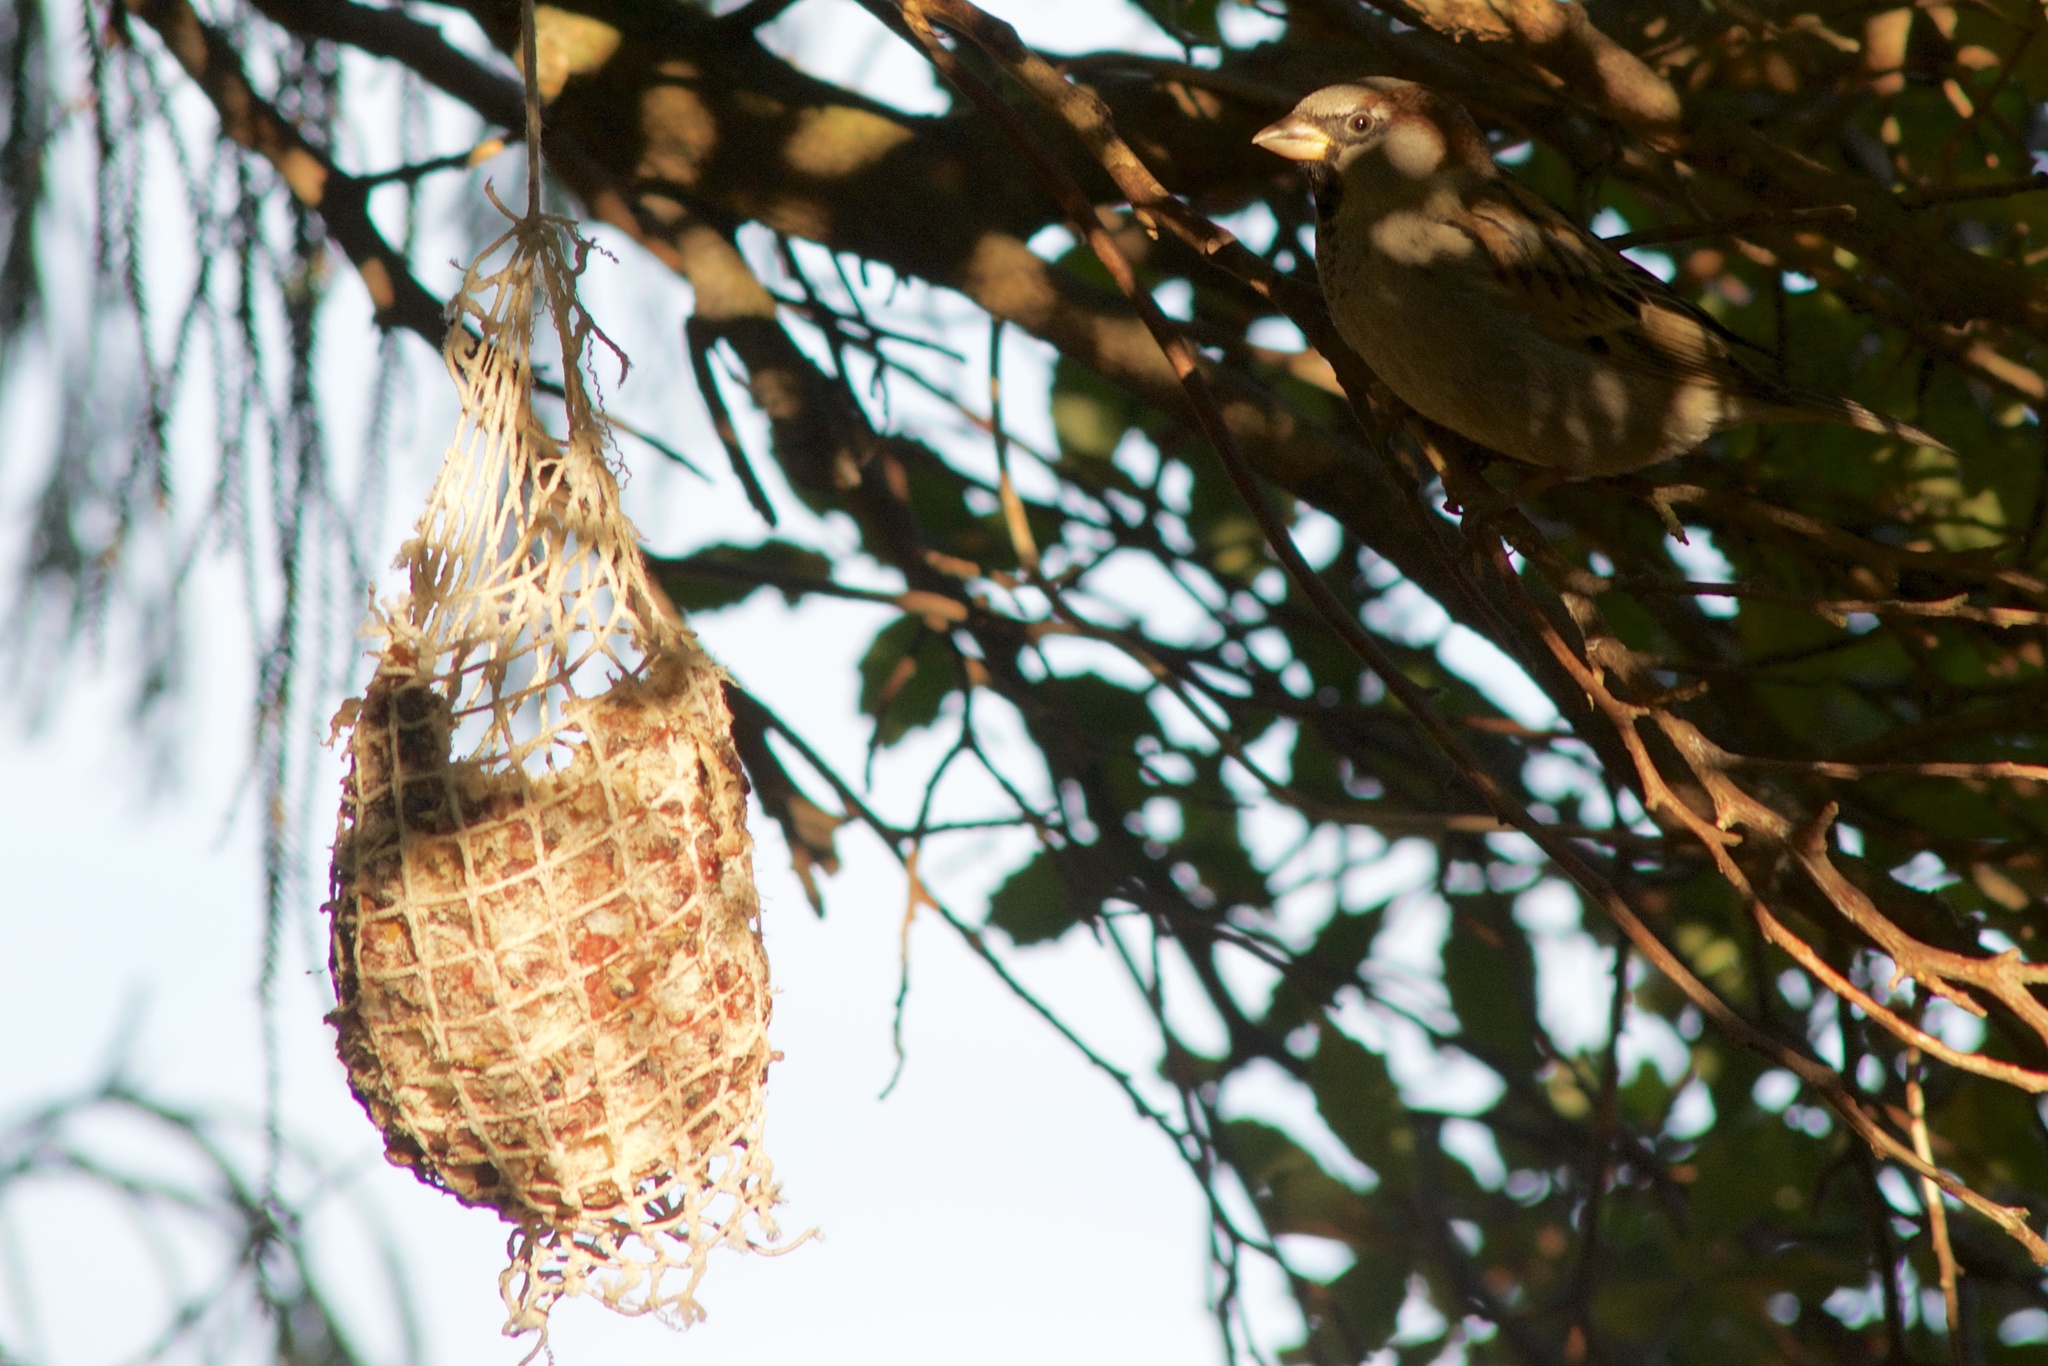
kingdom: Animalia
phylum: Chordata
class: Aves
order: Passeriformes
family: Passeridae
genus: Passer
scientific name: Passer domesticus
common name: House sparrow
